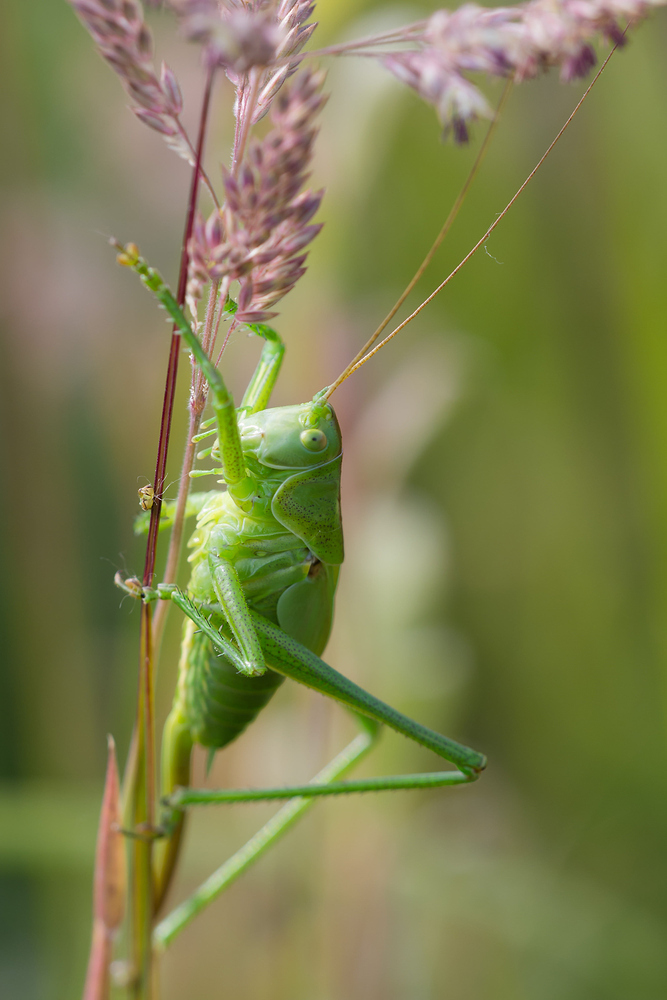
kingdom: Animalia
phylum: Arthropoda
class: Insecta
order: Orthoptera
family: Tettigoniidae
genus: Tettigonia
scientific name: Tettigonia viridissima
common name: Great green bush-cricket
